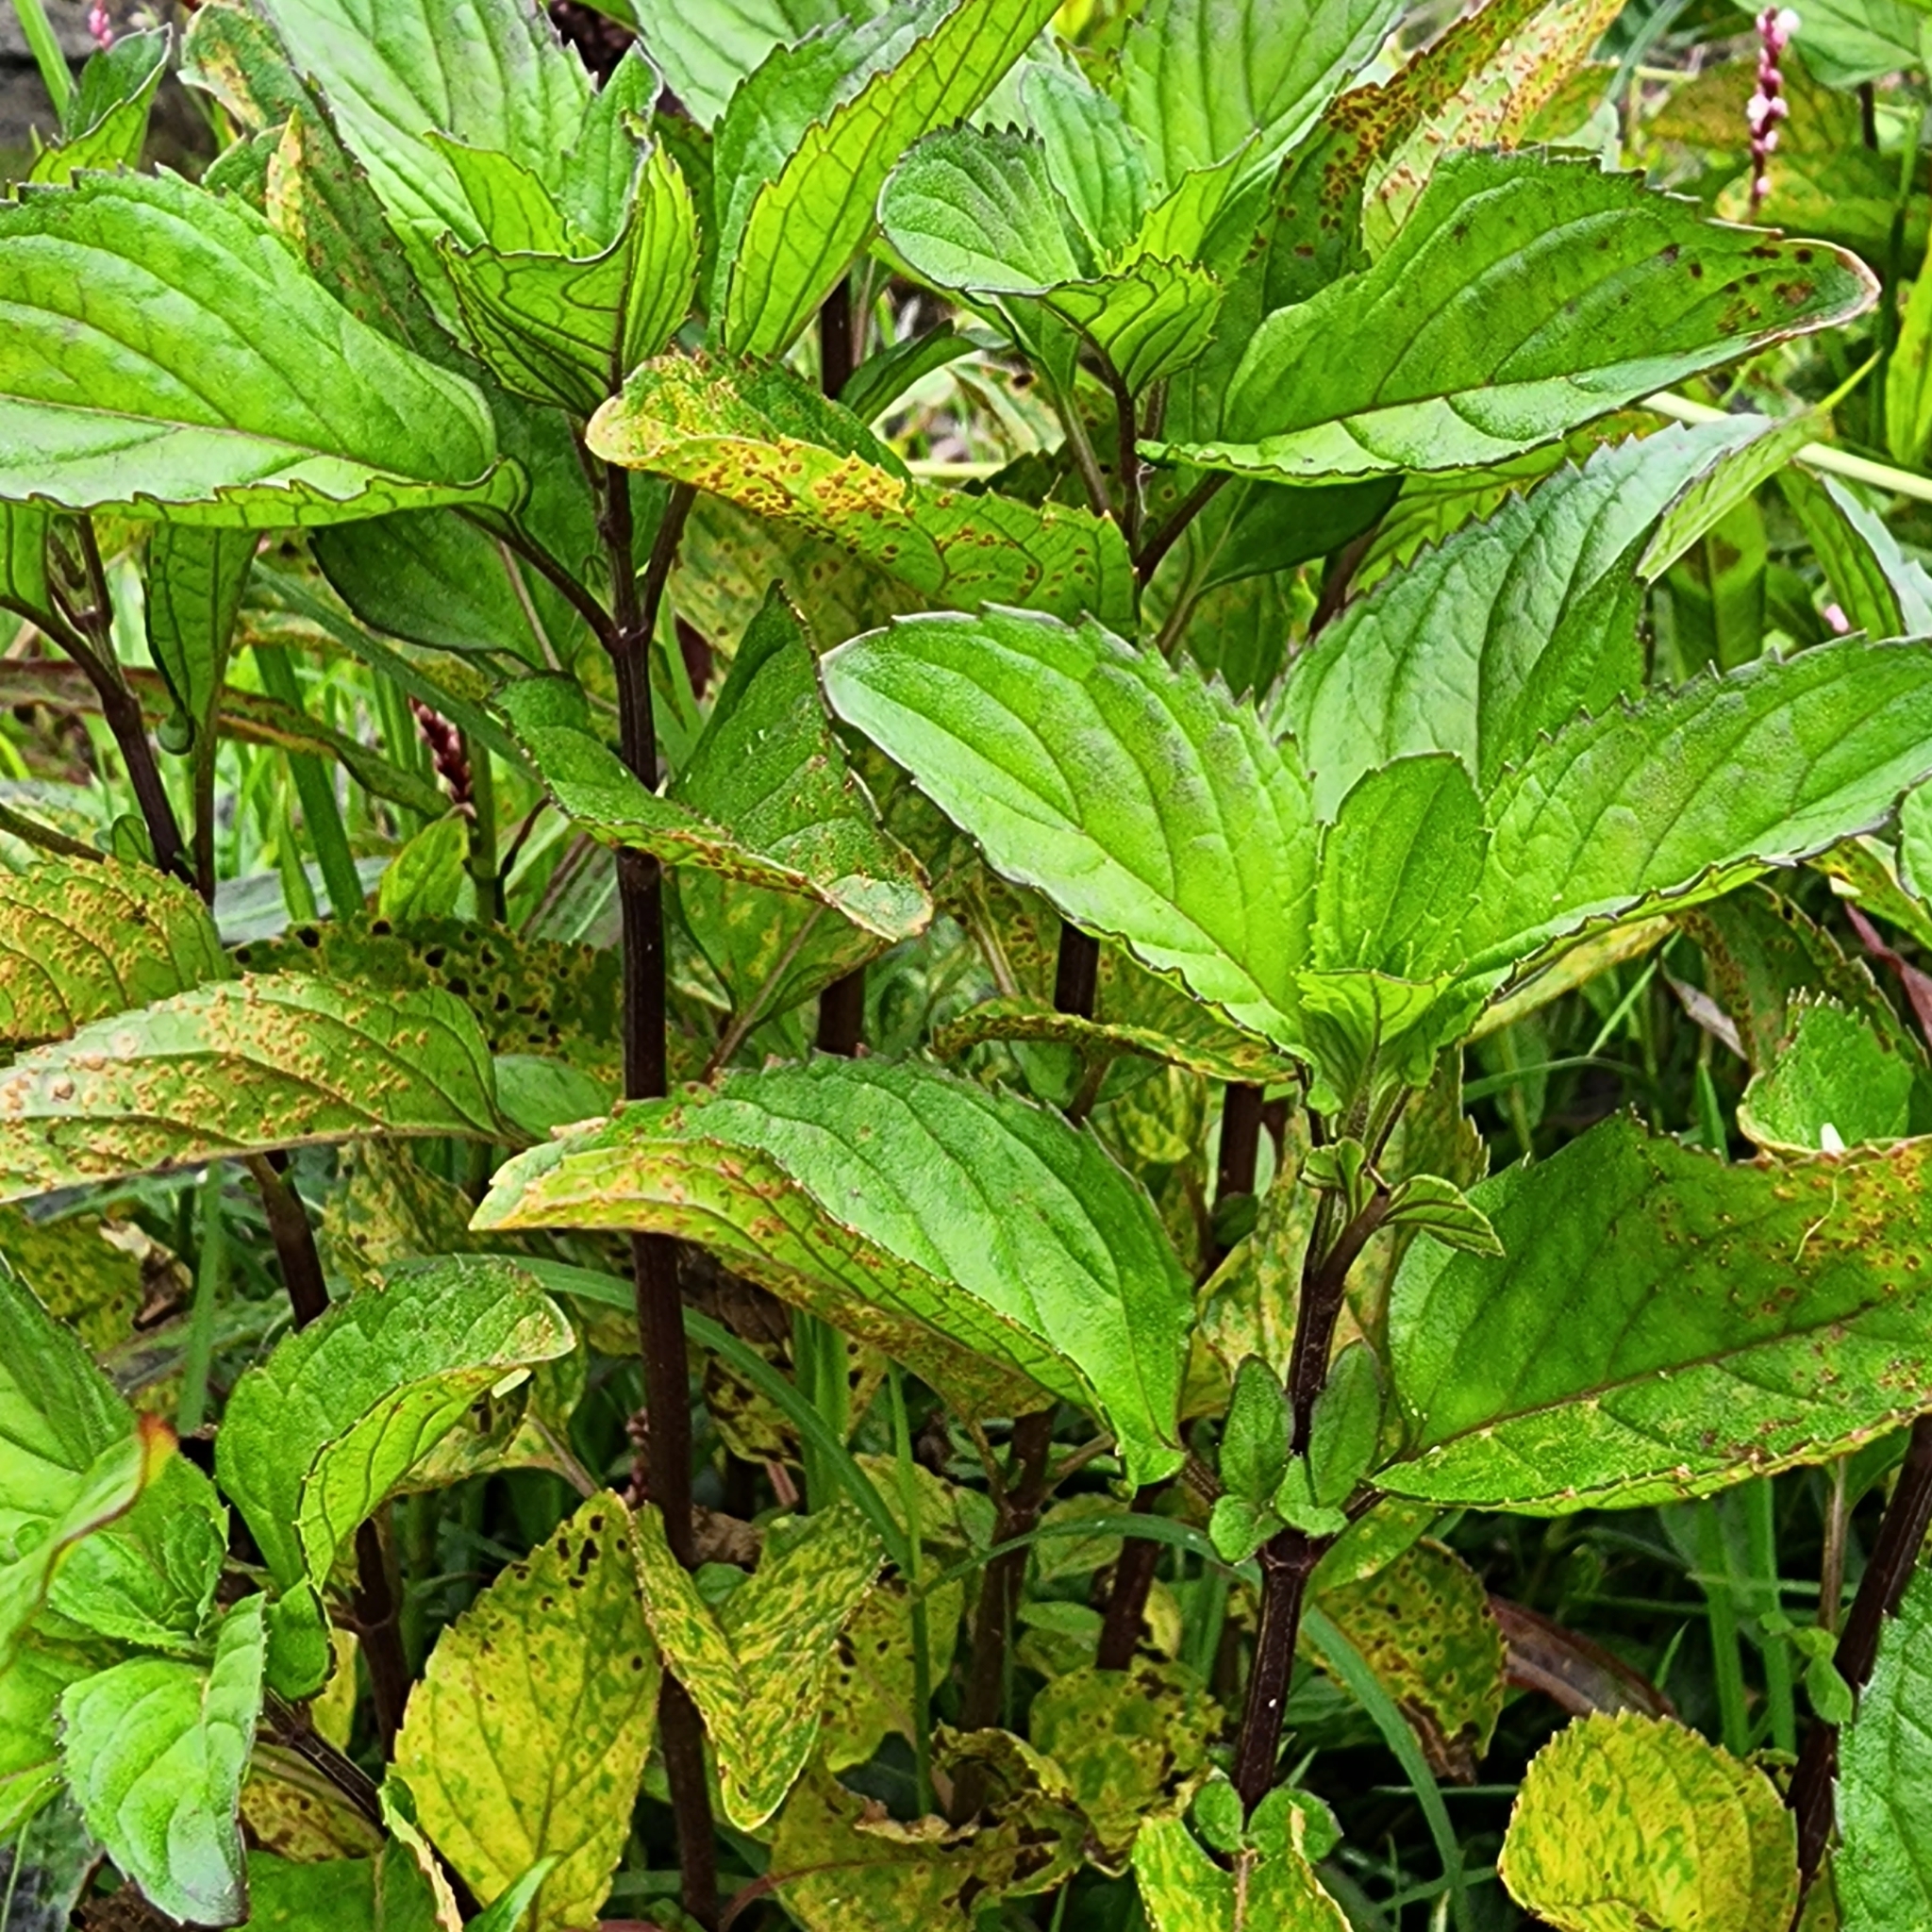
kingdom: Plantae
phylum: Tracheophyta
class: Magnoliopsida
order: Lamiales
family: Lamiaceae
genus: Mentha
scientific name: Mentha australis
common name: Australian mint
